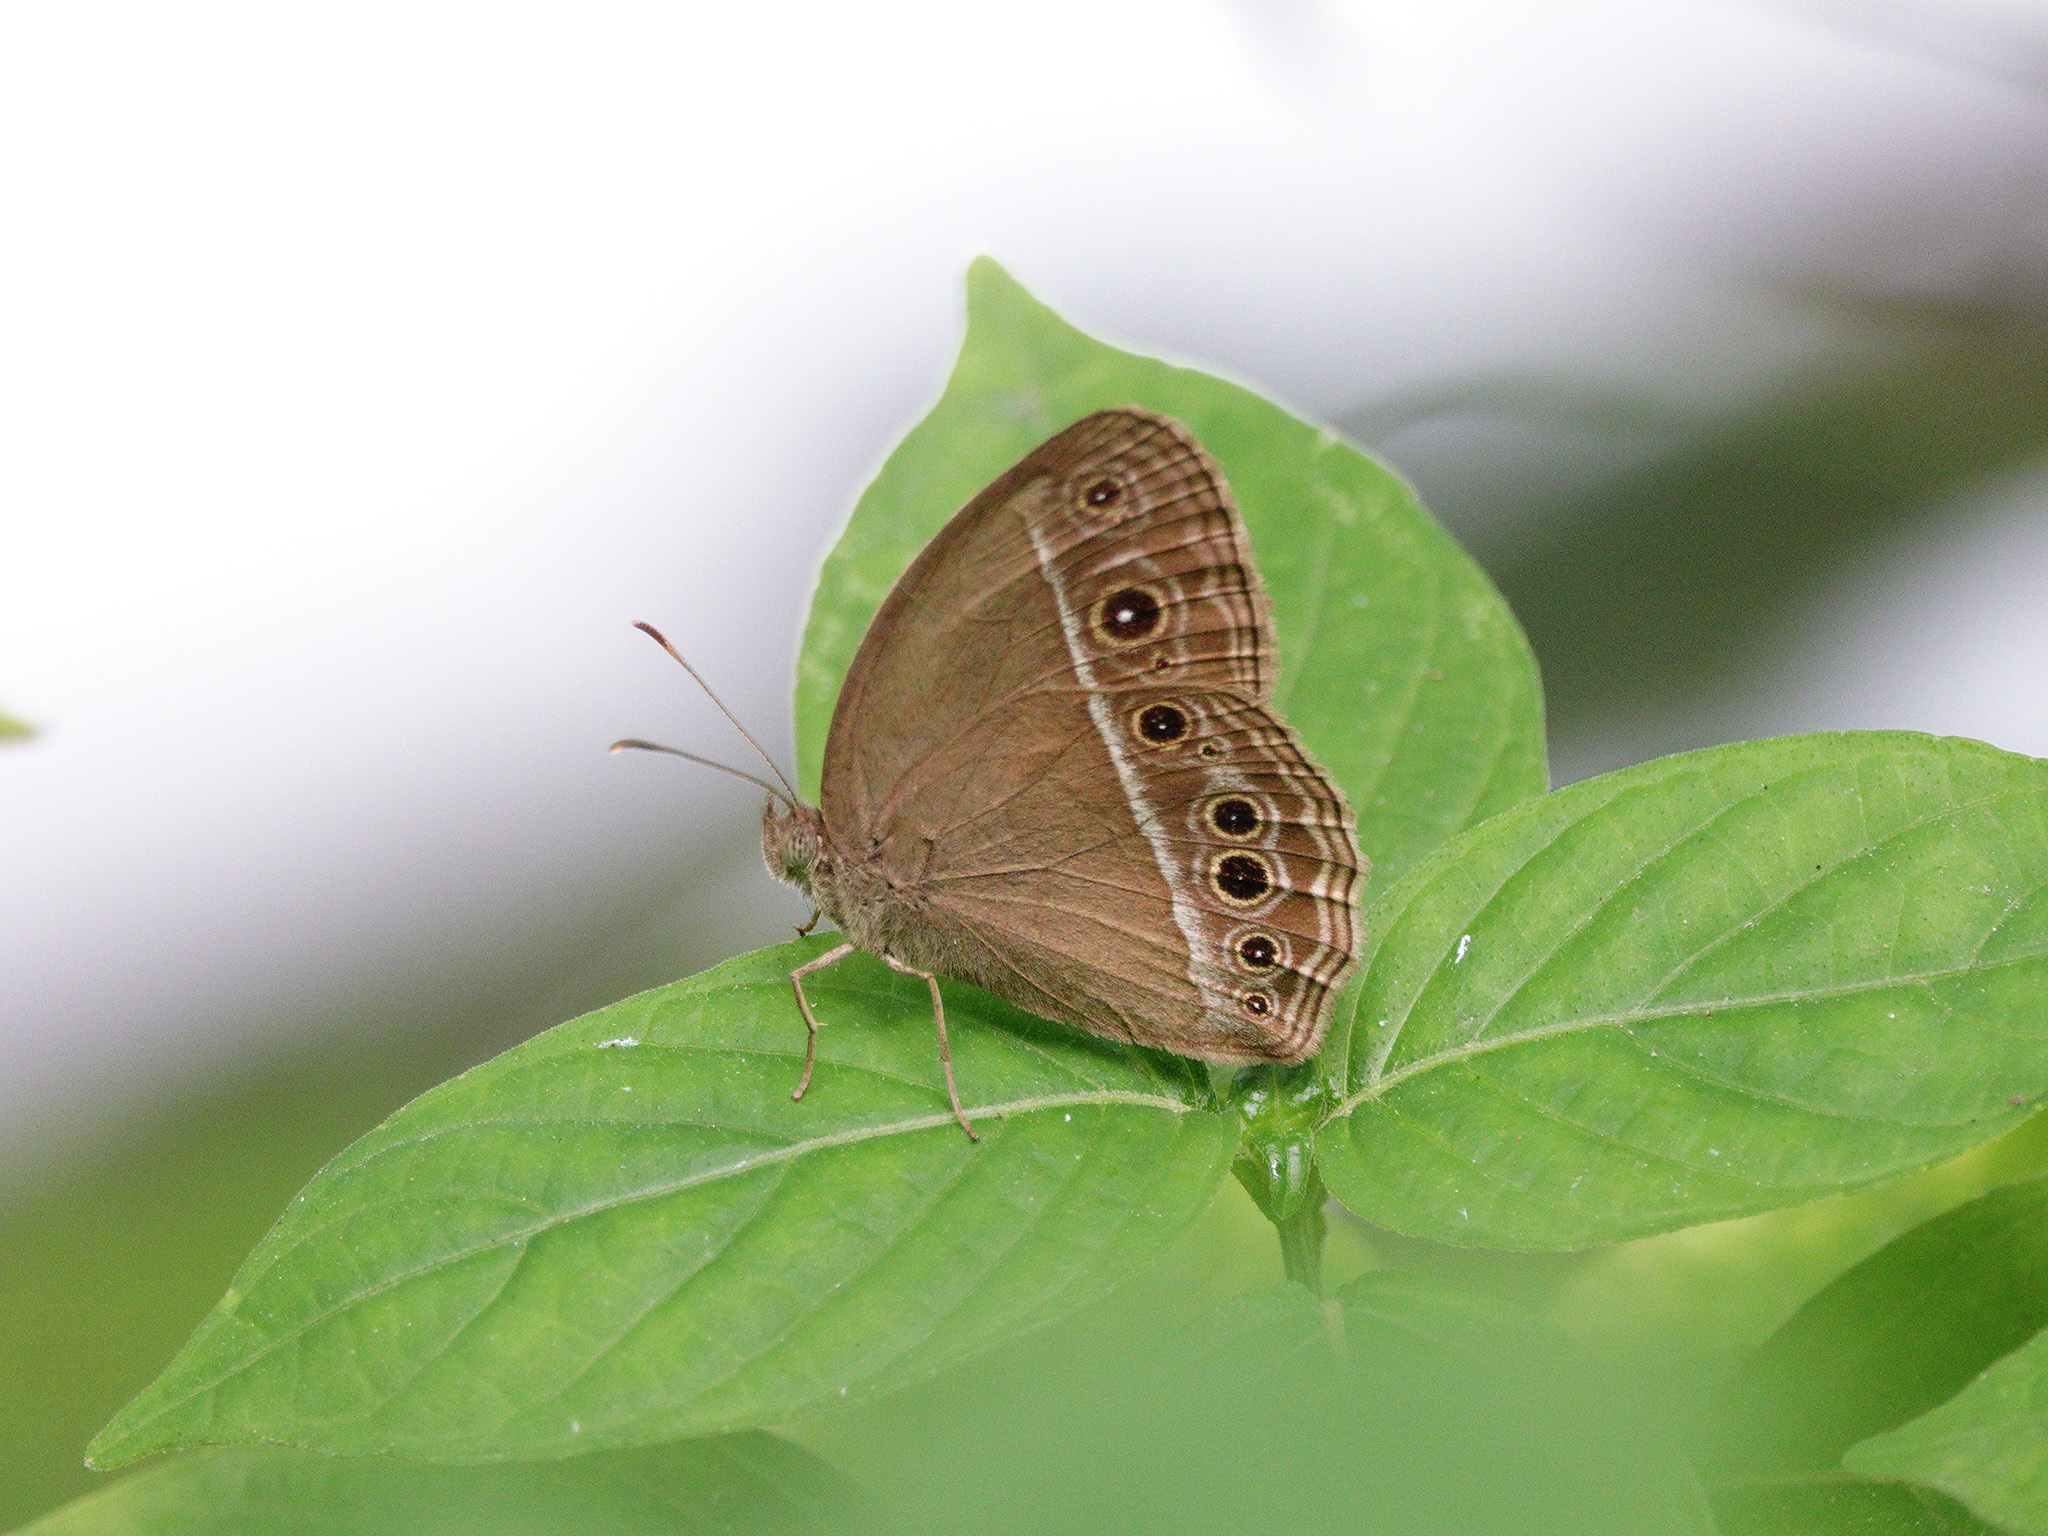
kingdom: Animalia
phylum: Arthropoda
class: Insecta
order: Lepidoptera
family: Nymphalidae
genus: Mycalesis
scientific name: Mycalesis mineus
